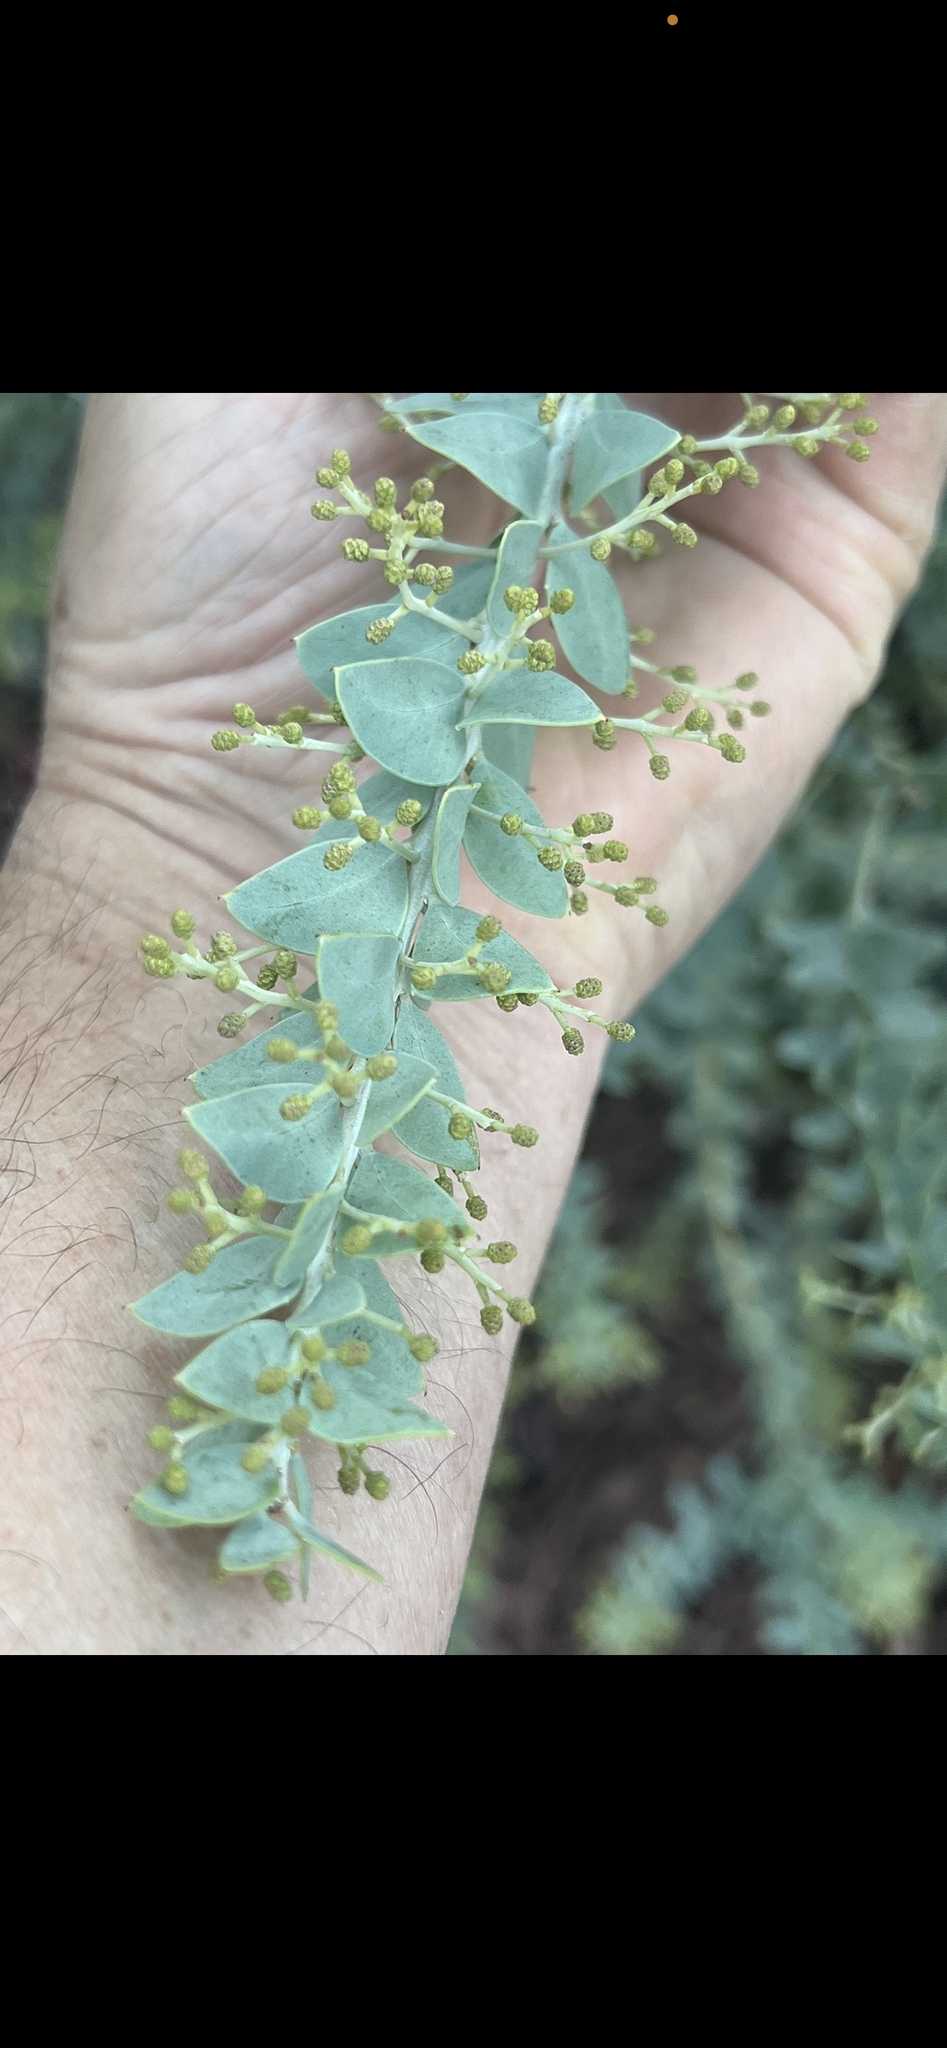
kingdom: Plantae
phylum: Tracheophyta
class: Magnoliopsida
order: Fabales
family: Fabaceae
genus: Acacia
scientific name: Acacia cultriformis
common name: Knife acacia
